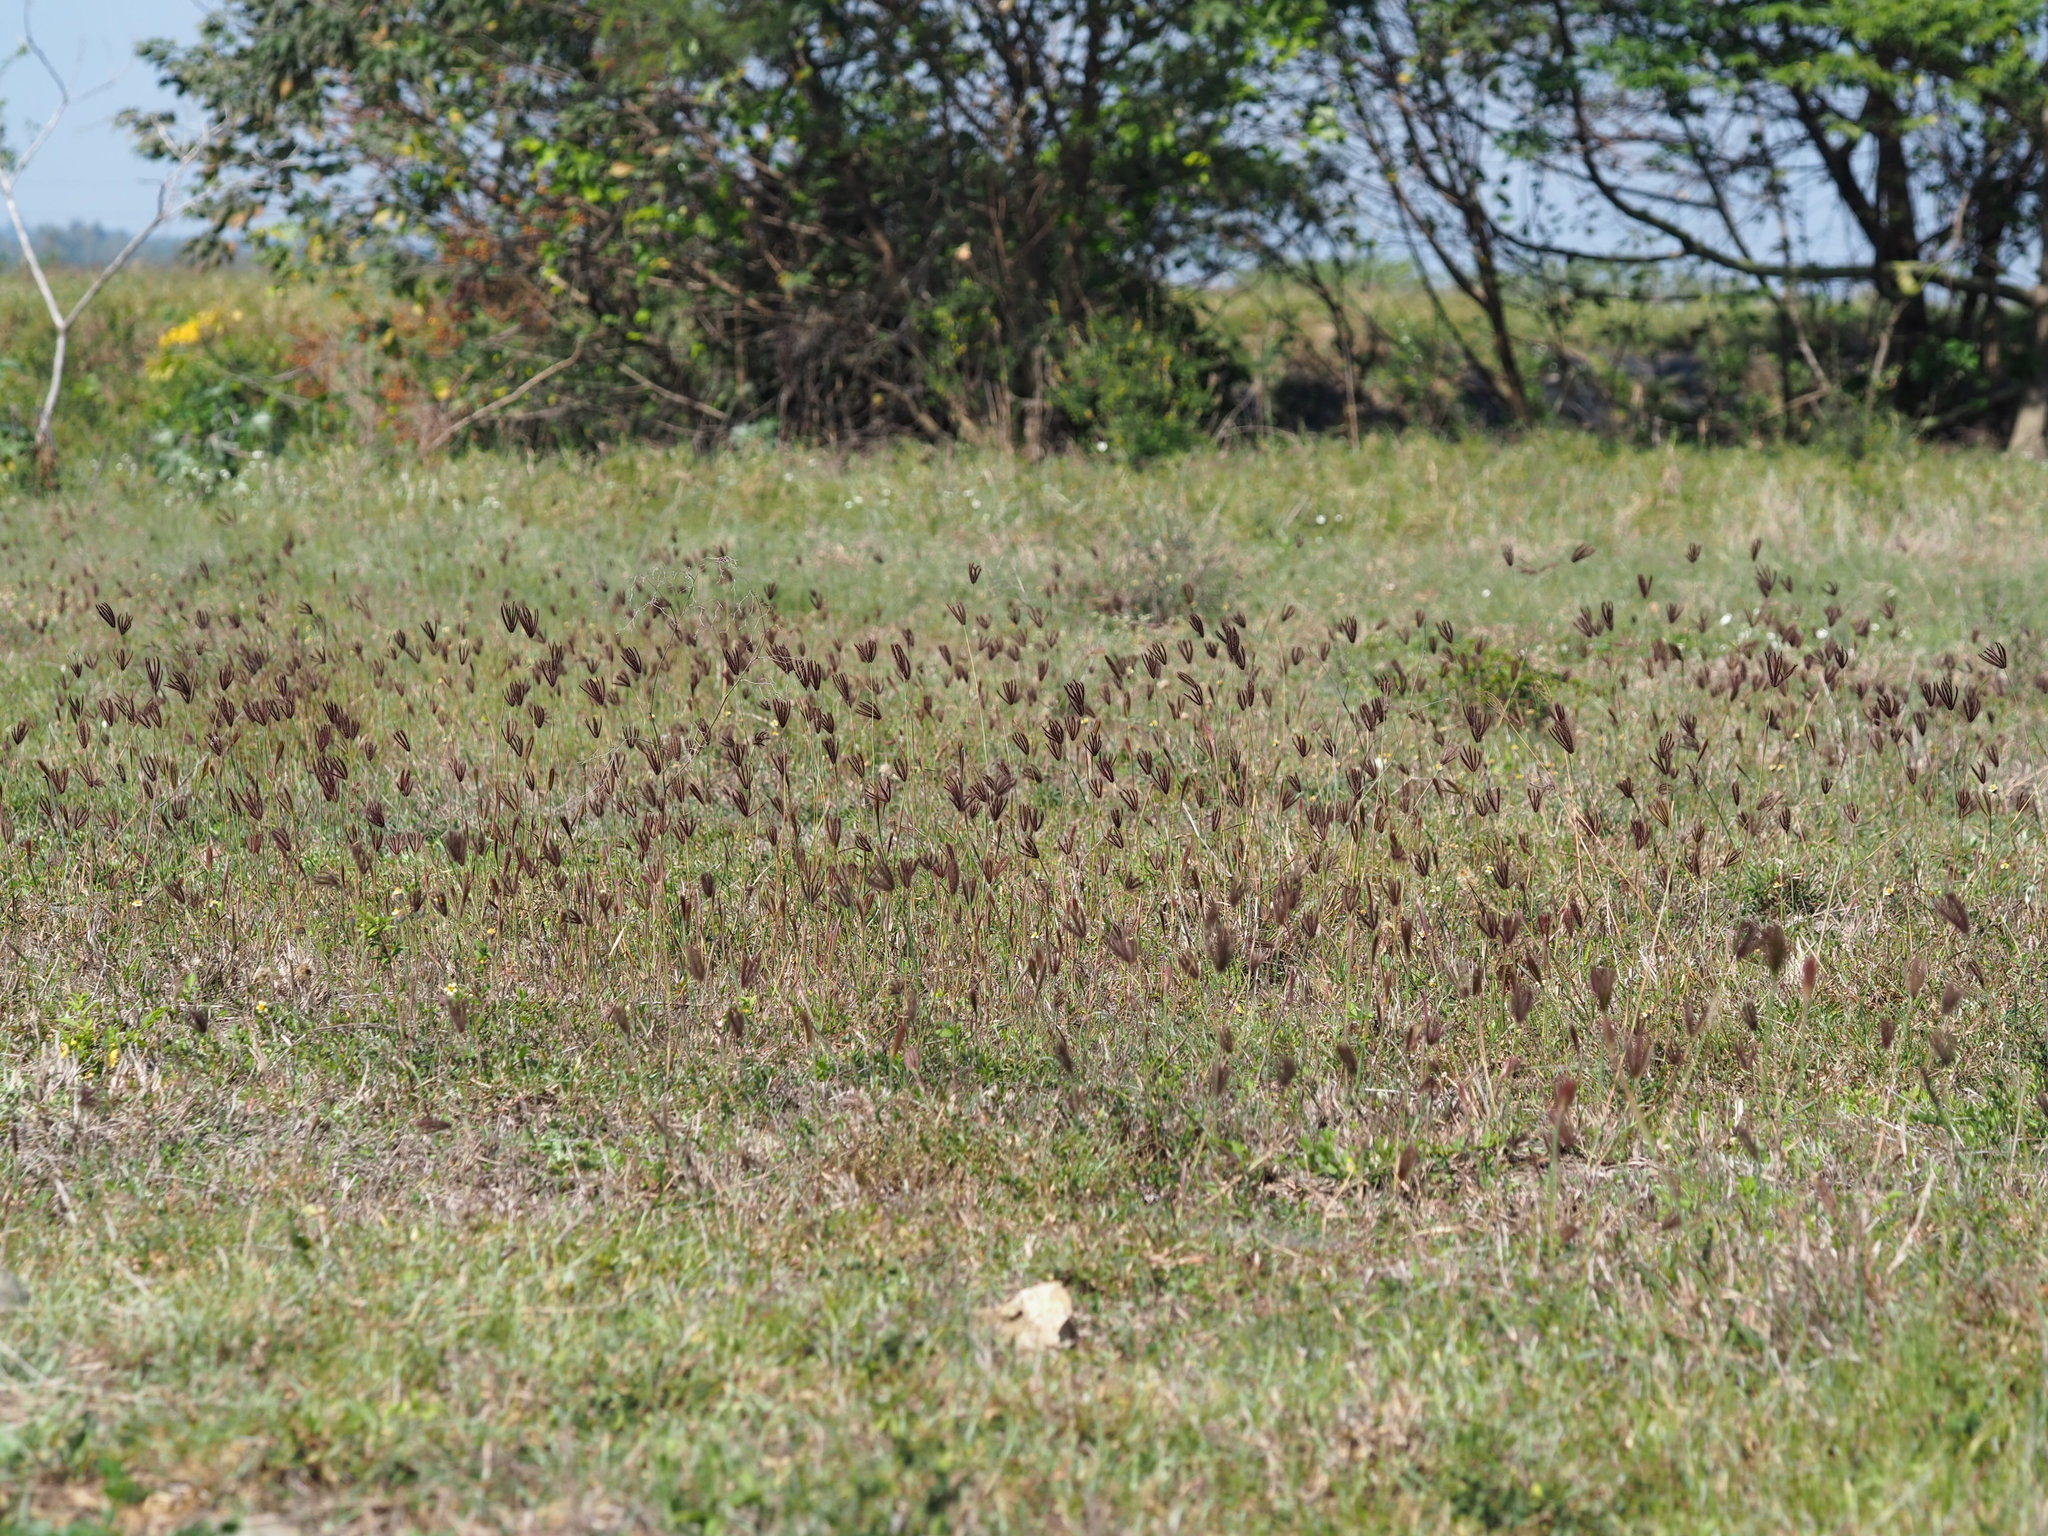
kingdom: Plantae
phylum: Tracheophyta
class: Liliopsida
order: Poales
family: Poaceae
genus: Chloris
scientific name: Chloris barbata
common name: Swollen fingergrass
